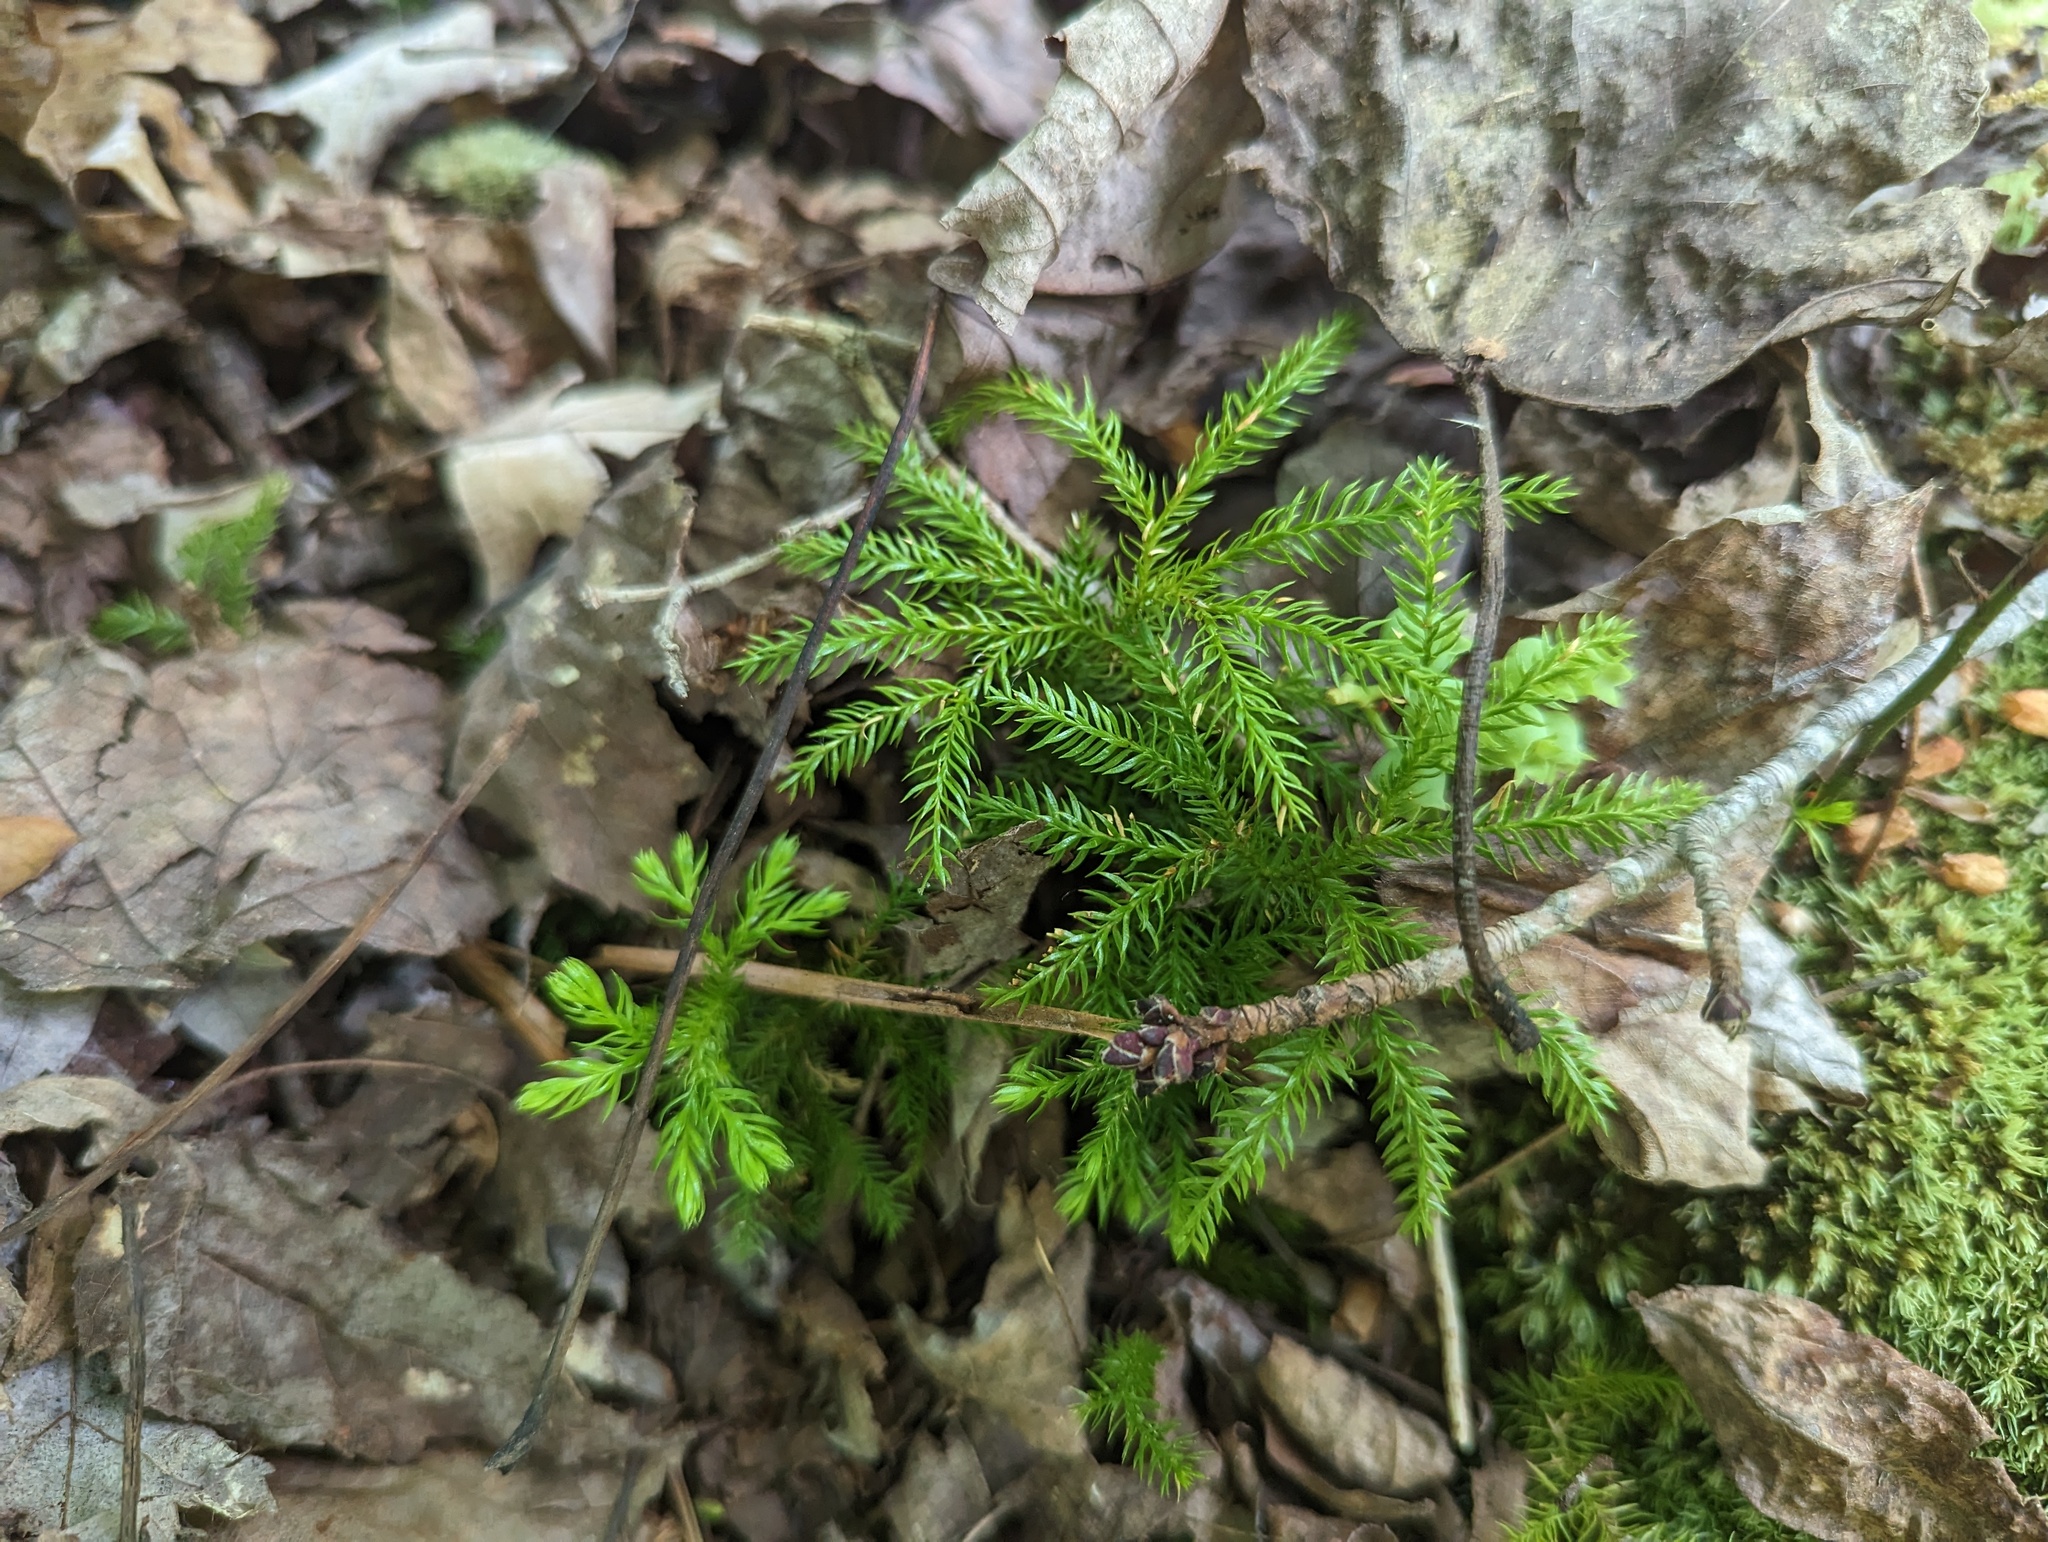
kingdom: Plantae
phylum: Tracheophyta
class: Lycopodiopsida
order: Lycopodiales
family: Lycopodiaceae
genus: Dendrolycopodium
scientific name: Dendrolycopodium dendroideum
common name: Northern tree-clubmoss
